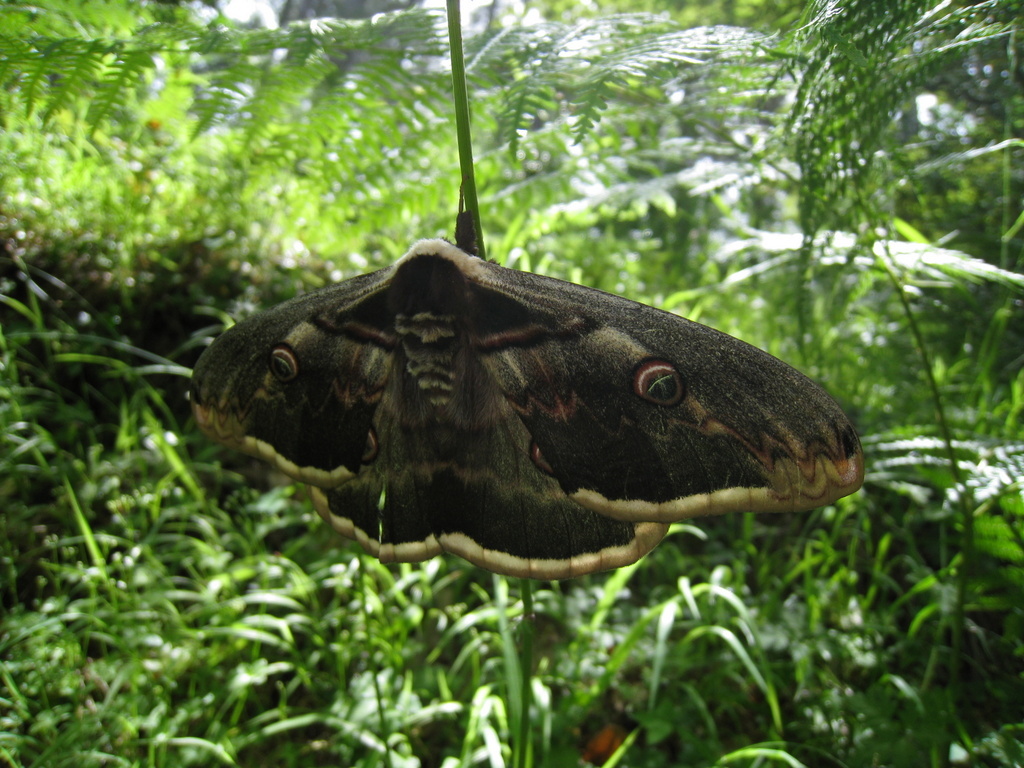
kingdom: Animalia
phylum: Arthropoda
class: Insecta
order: Lepidoptera
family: Saturniidae
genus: Saturnia
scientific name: Saturnia pyri
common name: Great peacock moth
